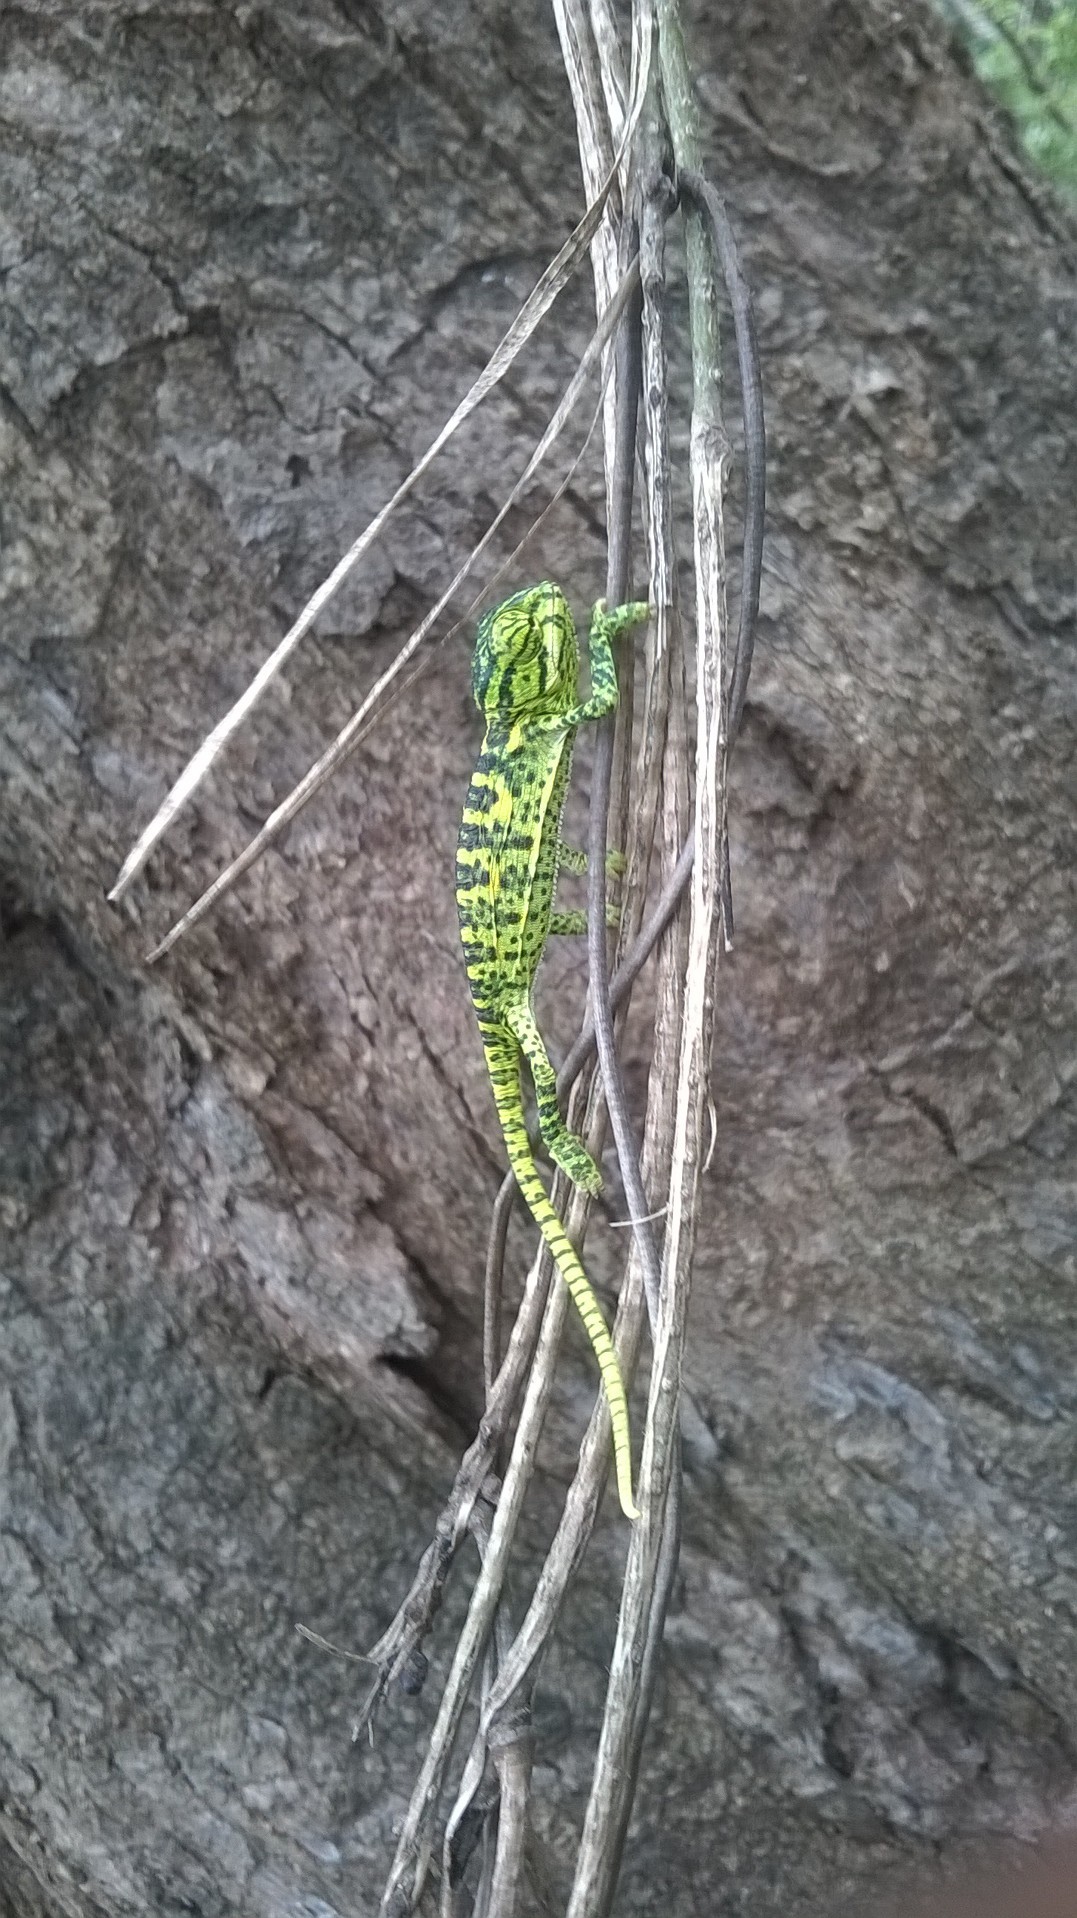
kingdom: Animalia
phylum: Chordata
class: Squamata
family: Chamaeleonidae
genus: Chamaeleo
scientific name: Chamaeleo zeylanicus
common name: Indian chameleon
